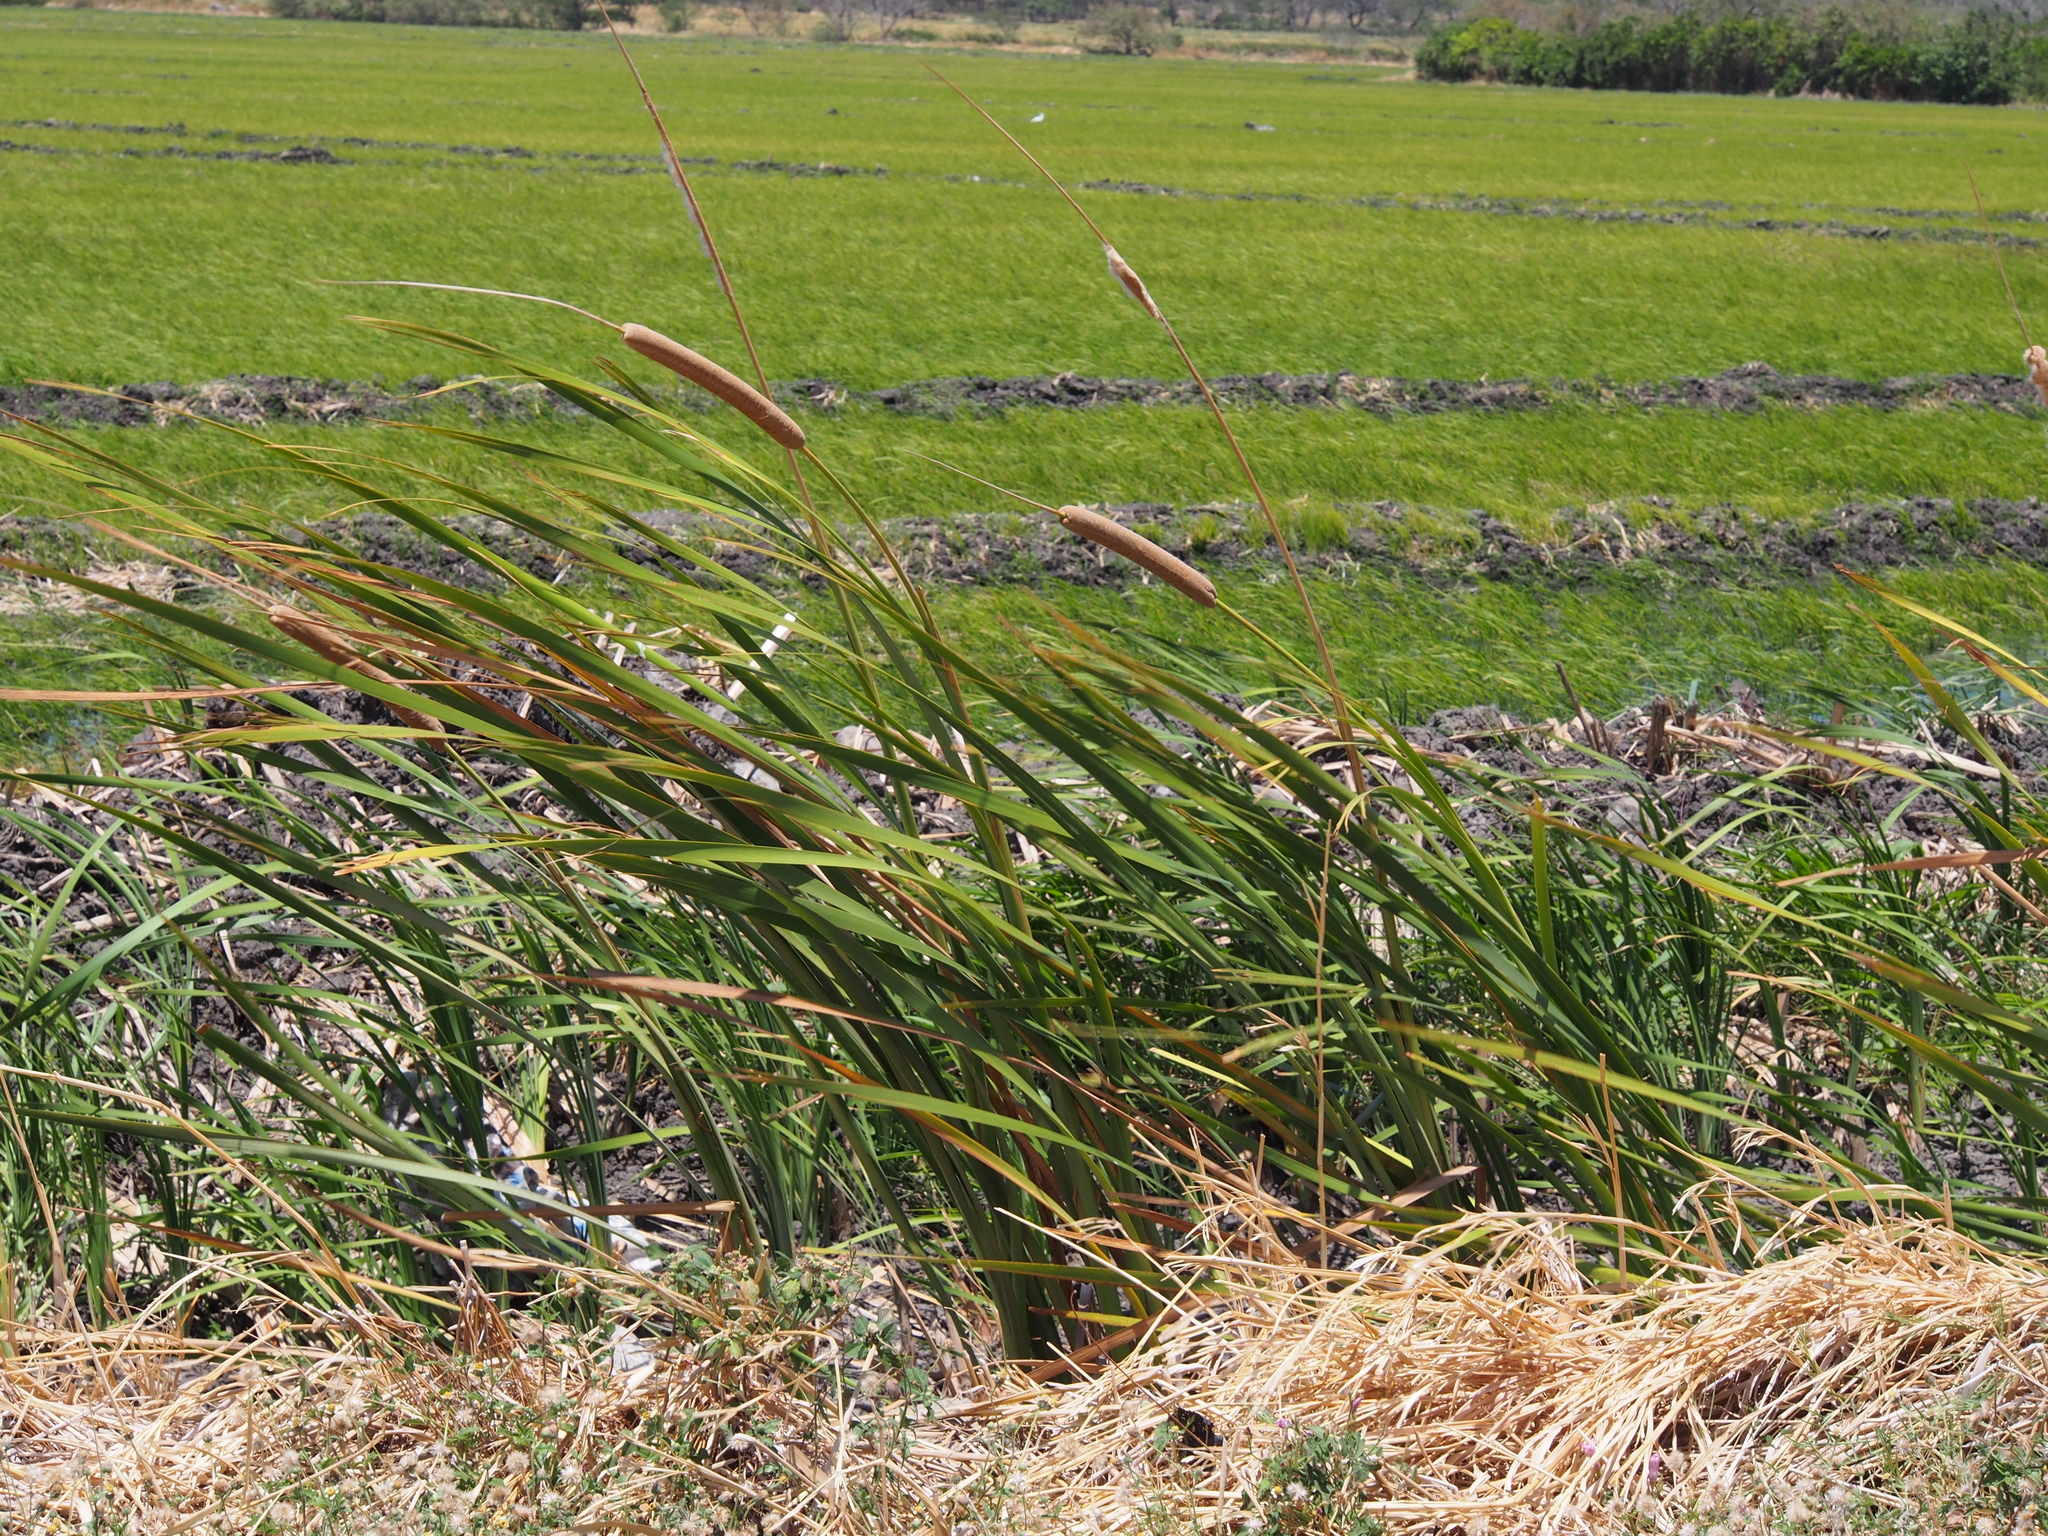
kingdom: Plantae
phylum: Tracheophyta
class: Liliopsida
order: Poales
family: Typhaceae
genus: Typha
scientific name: Typha domingensis
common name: Southern cattail
